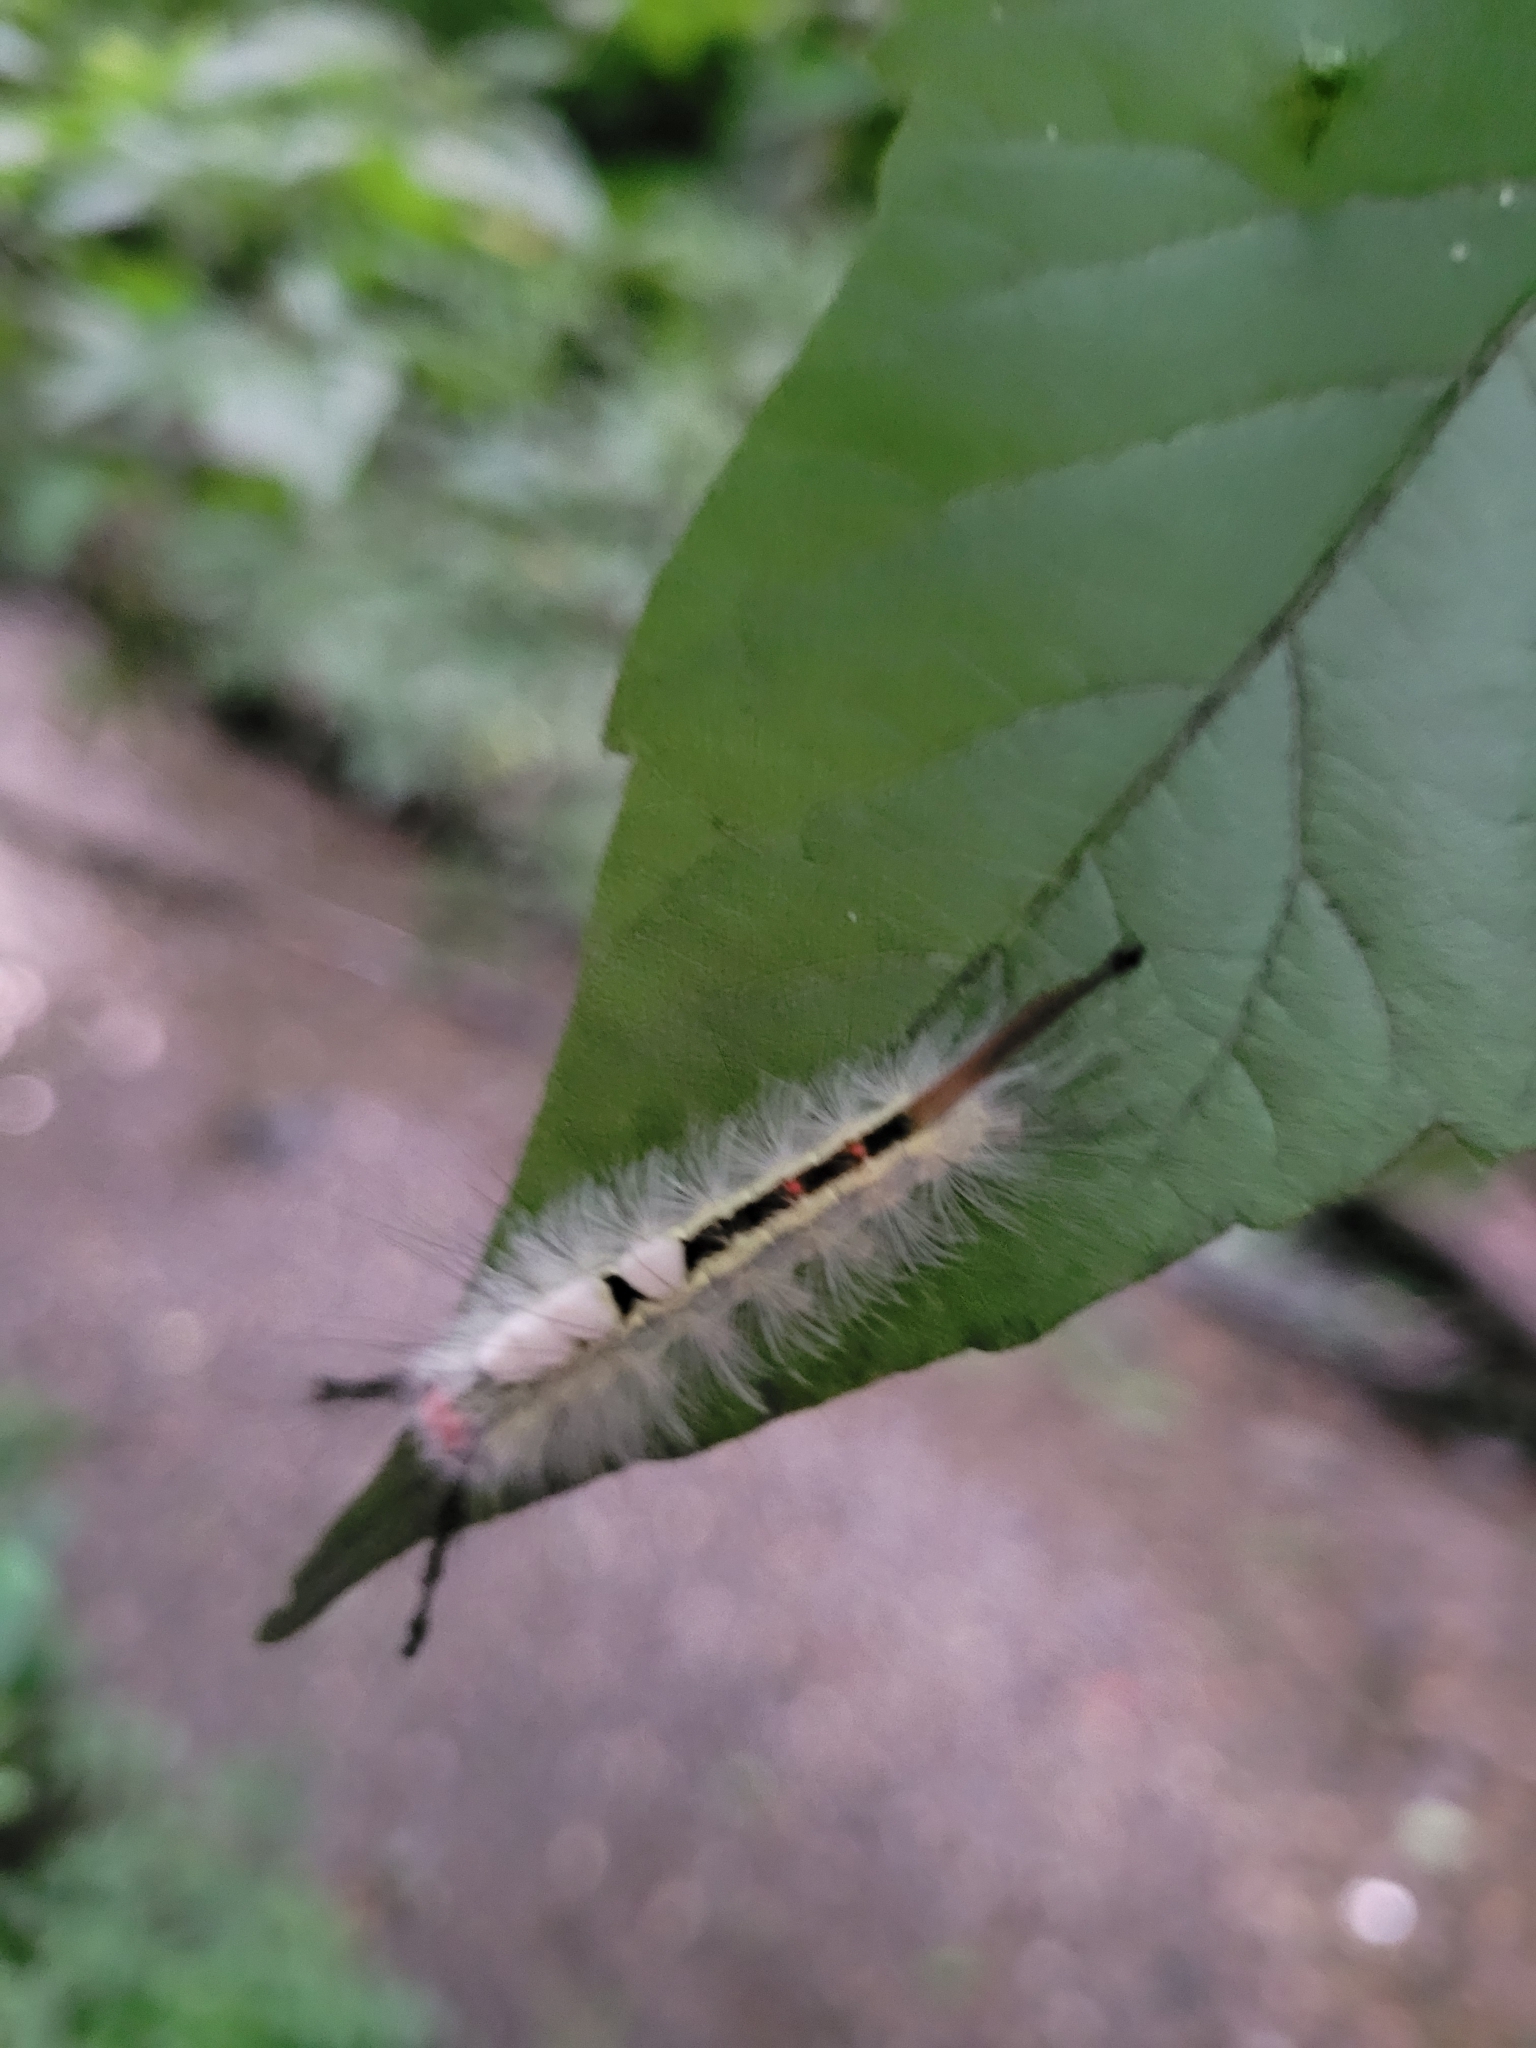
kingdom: Animalia
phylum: Arthropoda
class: Insecta
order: Lepidoptera
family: Erebidae
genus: Orgyia
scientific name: Orgyia leucostigma
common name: White-marked tussock moth
